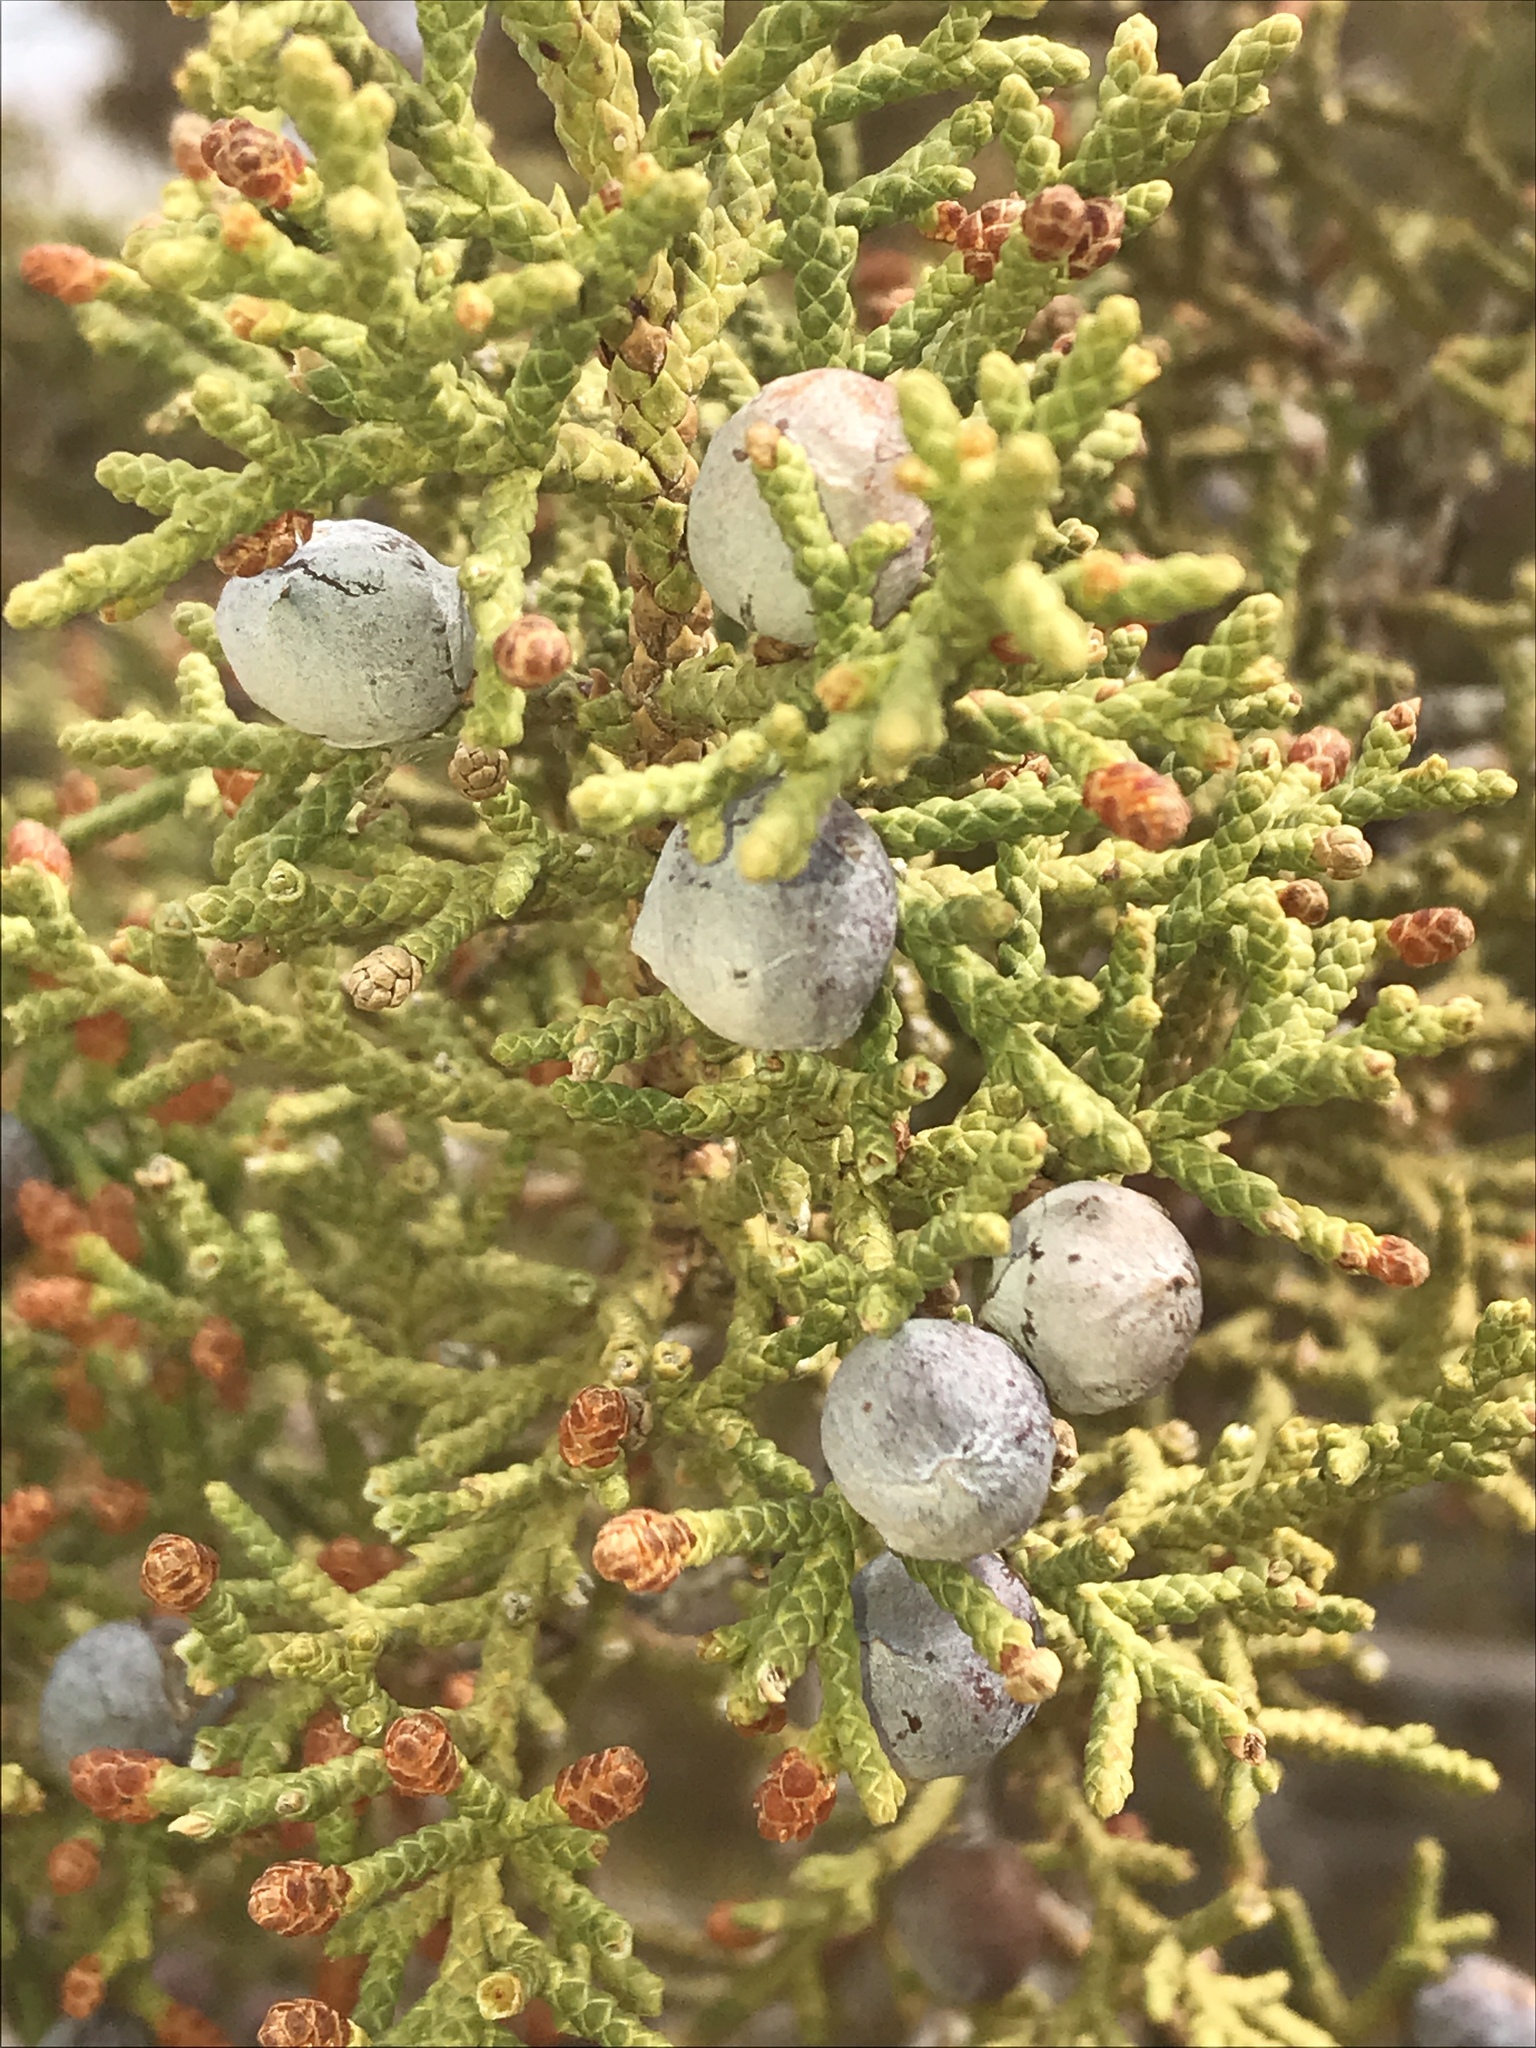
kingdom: Plantae
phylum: Tracheophyta
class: Pinopsida
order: Pinales
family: Cupressaceae
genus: Juniperus
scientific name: Juniperus osteosperma
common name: Utah juniper
